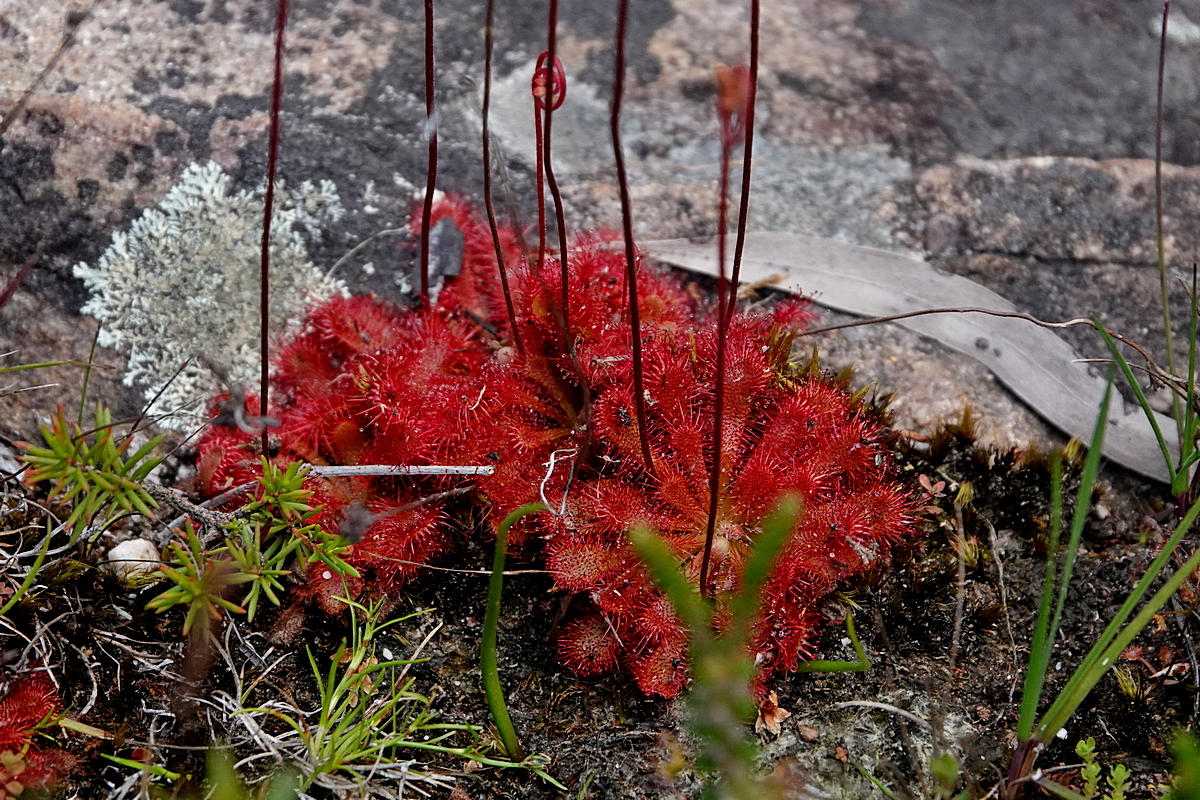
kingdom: Plantae
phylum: Tracheophyta
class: Magnoliopsida
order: Caryophyllales
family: Droseraceae
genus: Drosera
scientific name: Drosera spatulata
